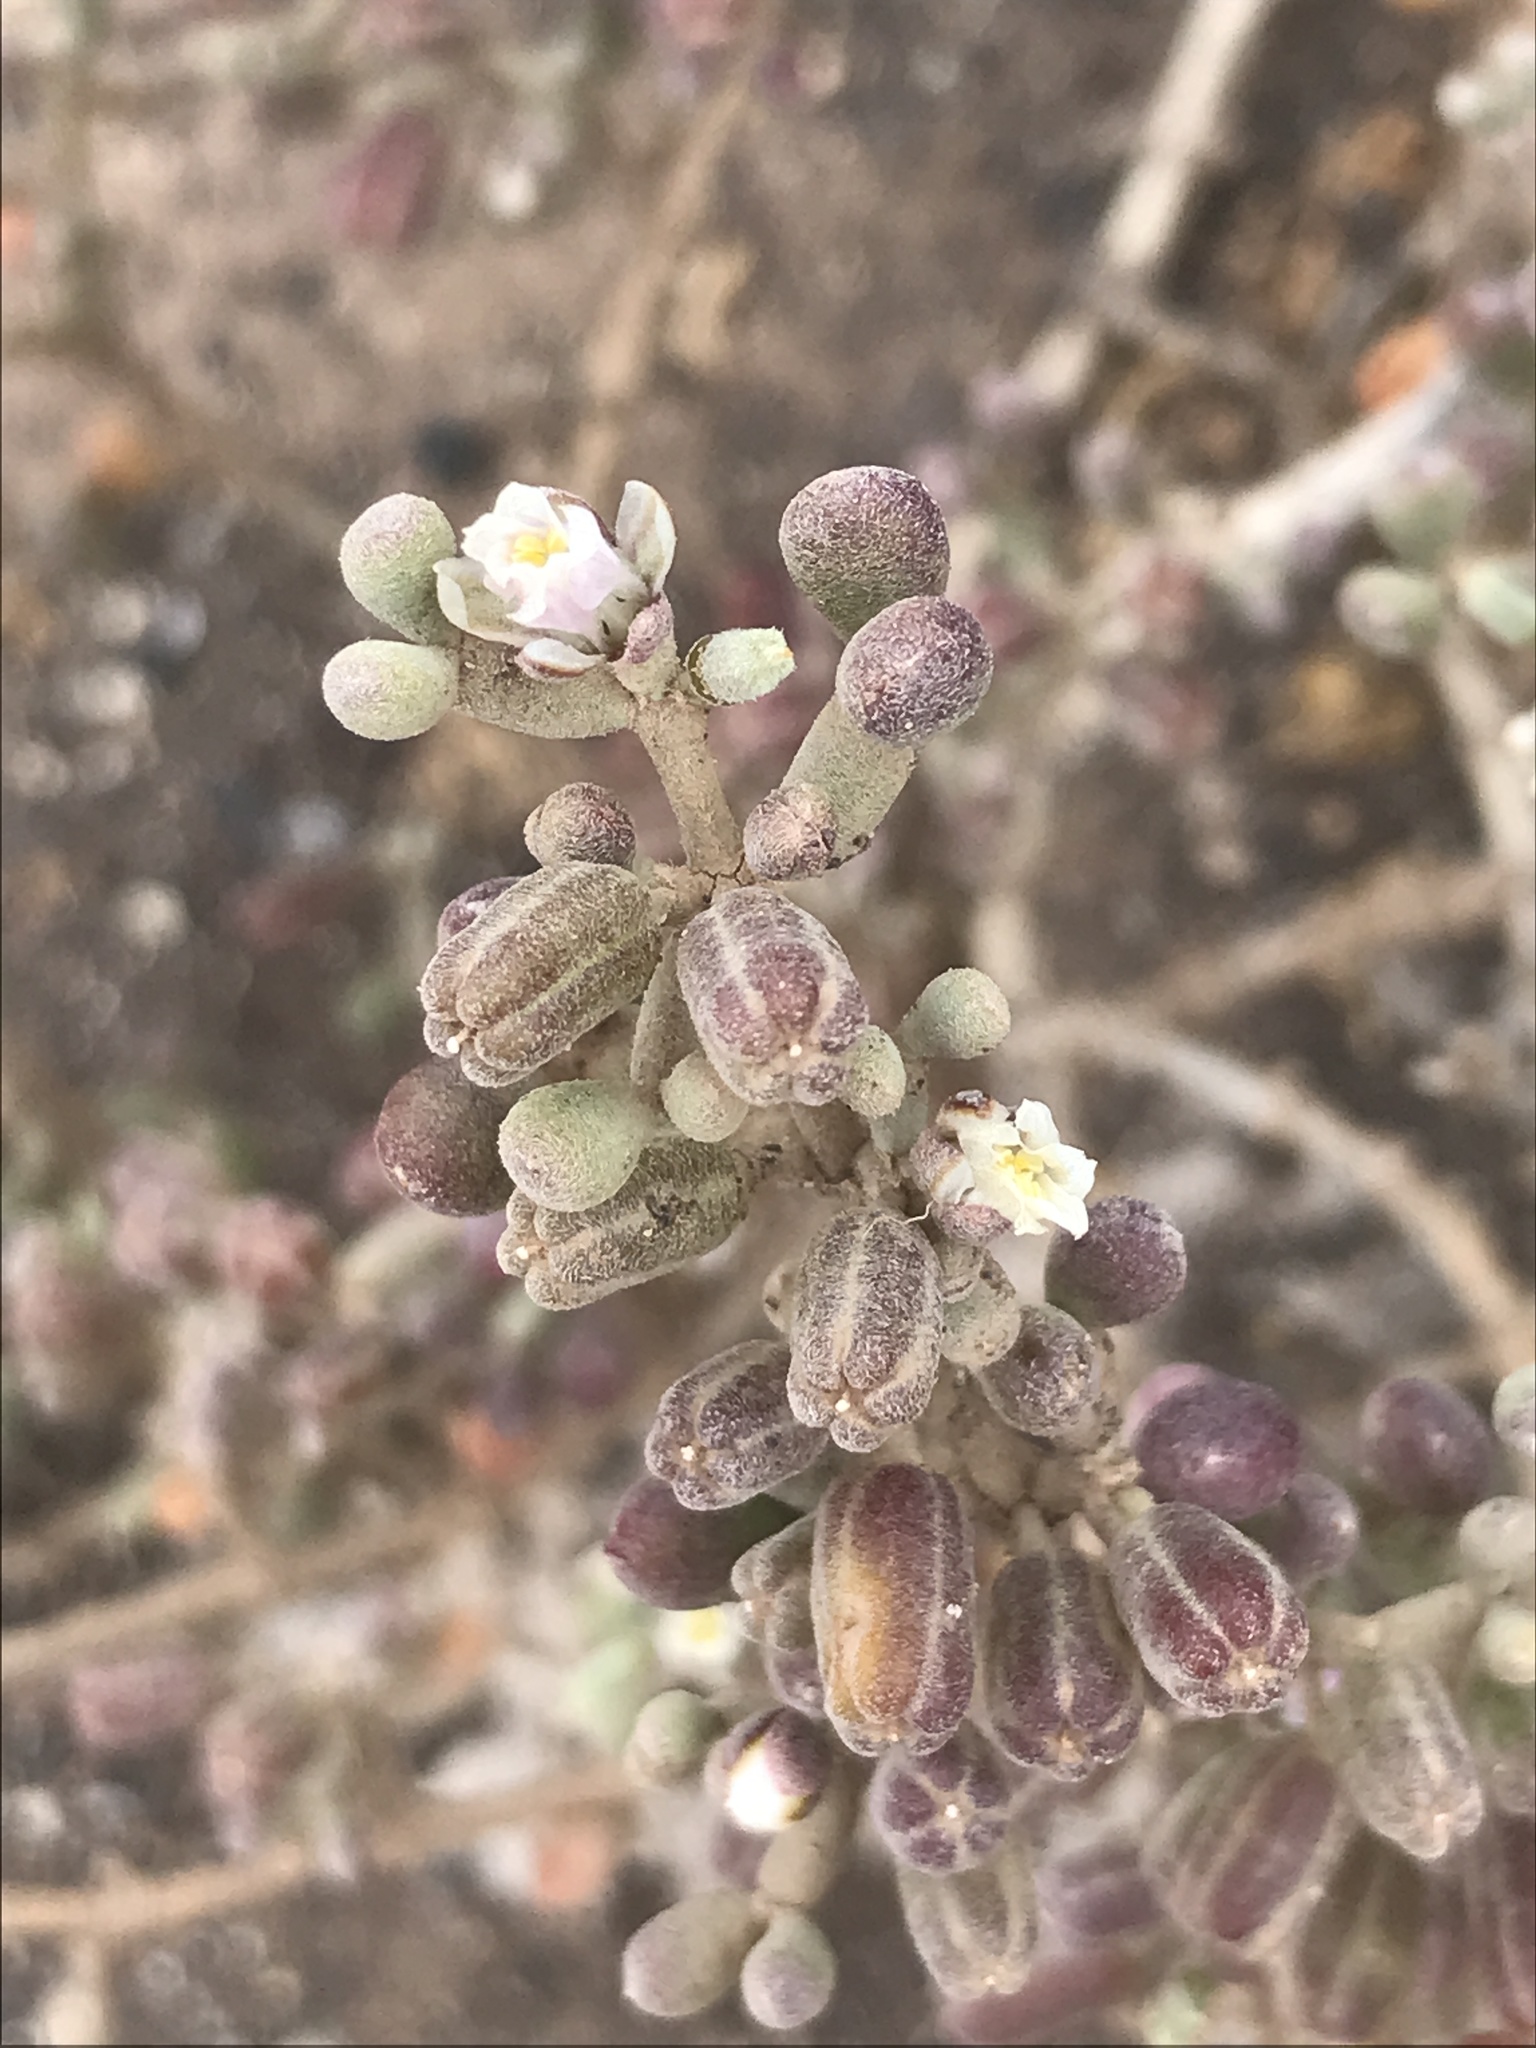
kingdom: Plantae
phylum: Tracheophyta
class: Magnoliopsida
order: Zygophyllales
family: Zygophyllaceae
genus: Tetraena
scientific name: Tetraena gaetula
